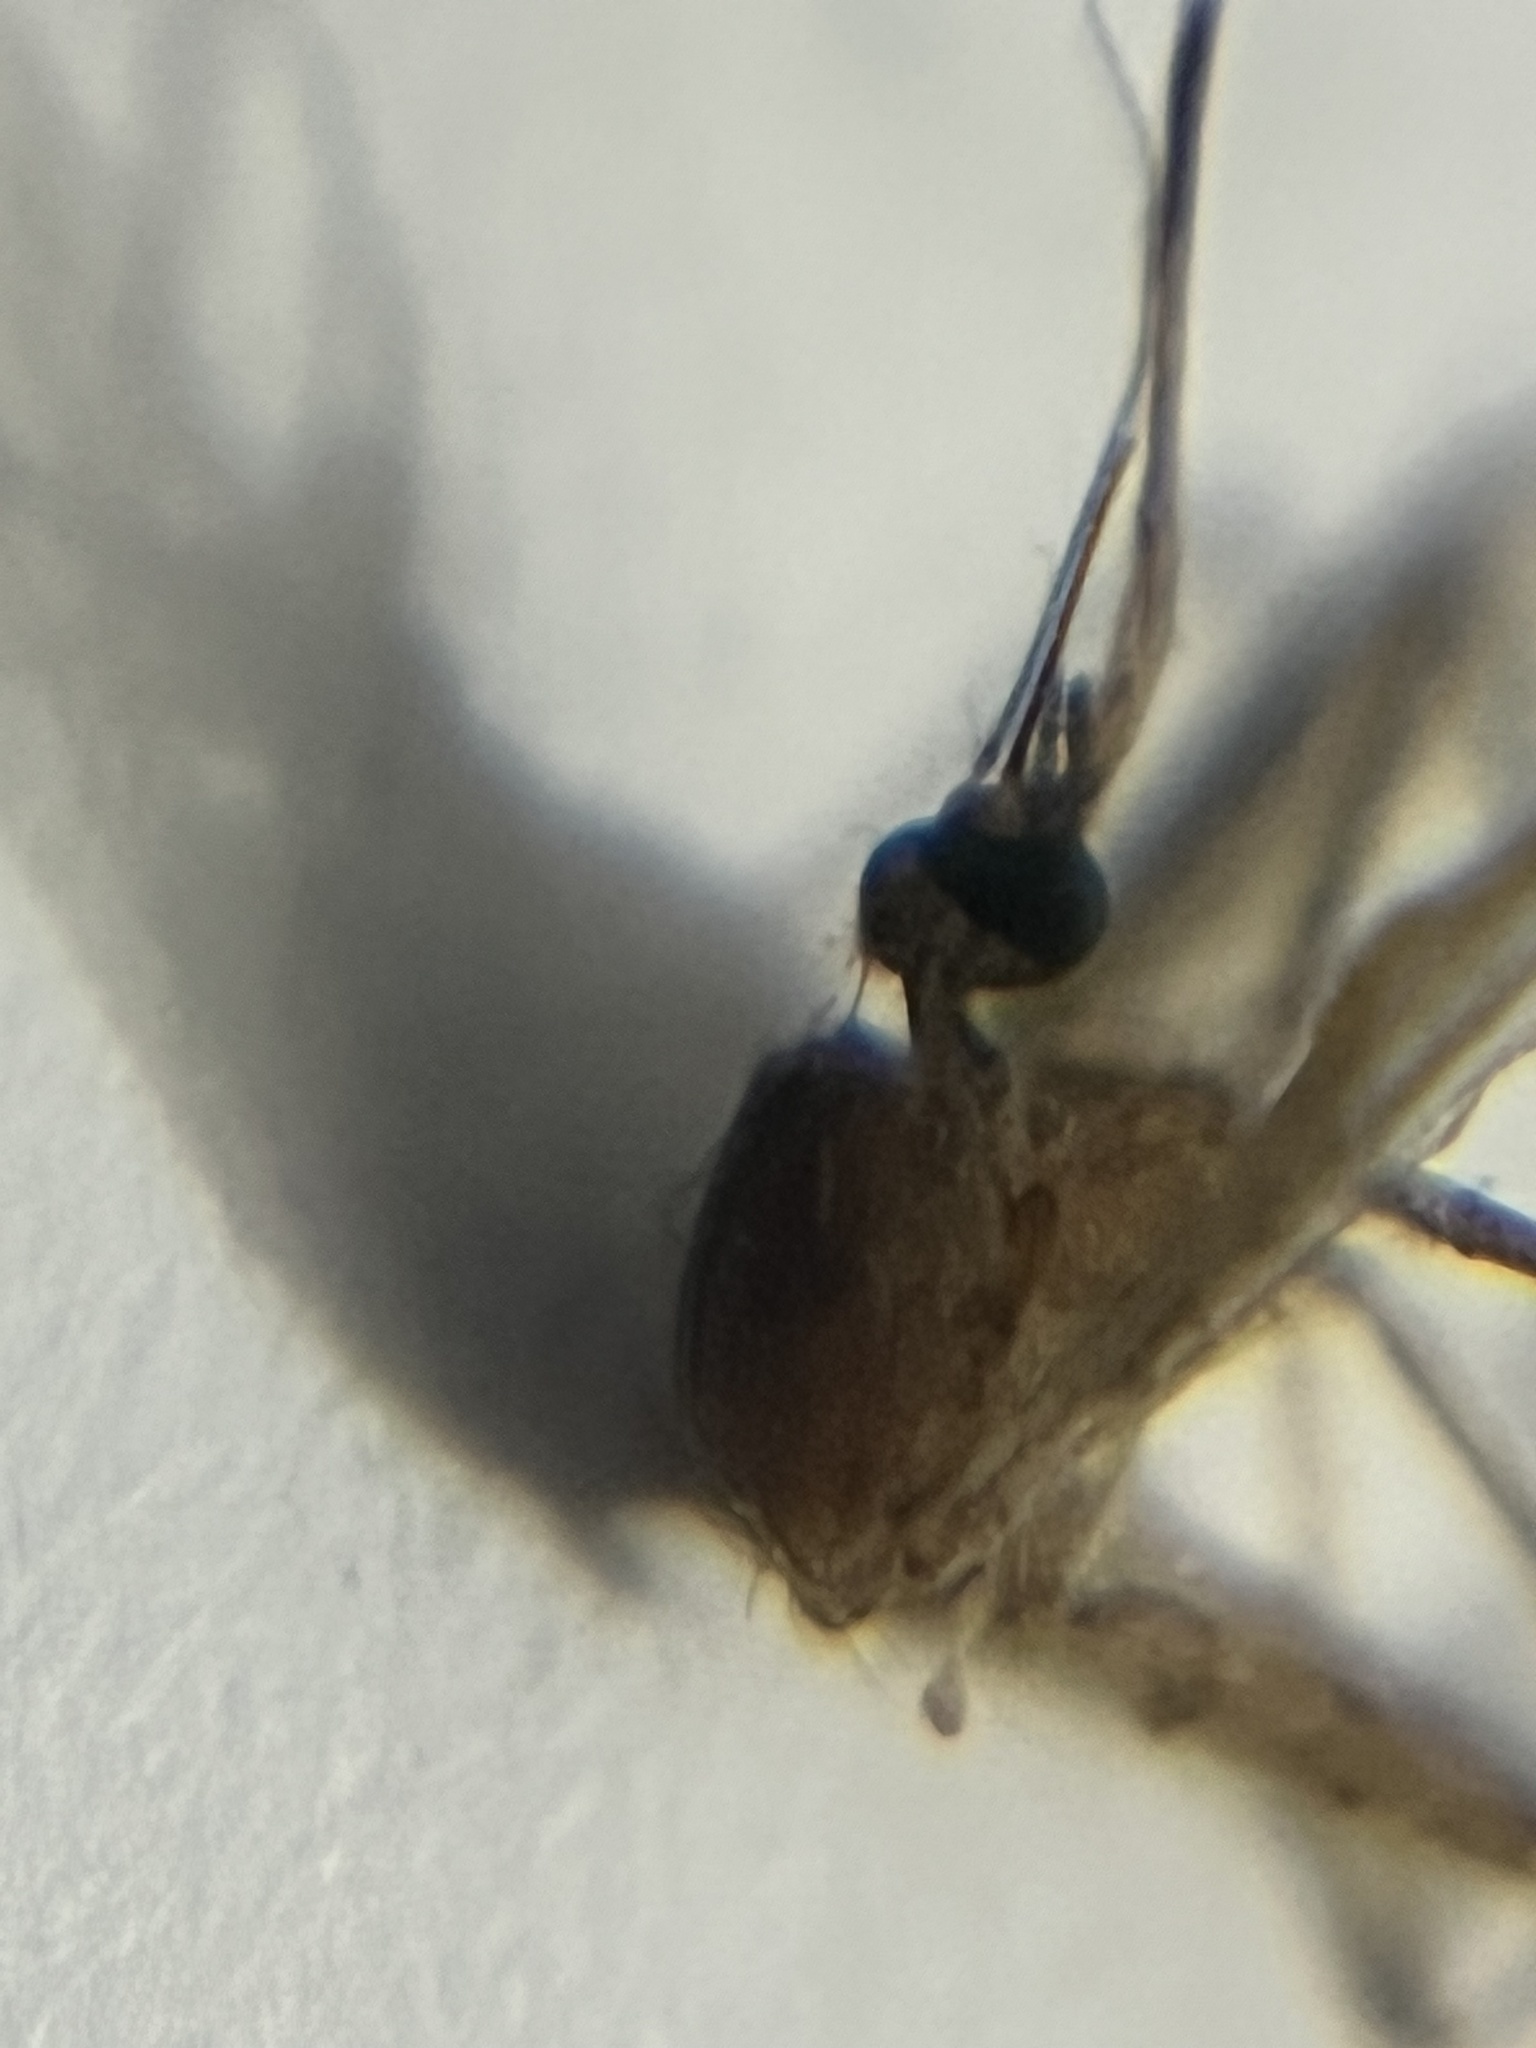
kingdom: Animalia
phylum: Arthropoda
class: Insecta
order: Diptera
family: Culicidae
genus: Culex
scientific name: Culex
